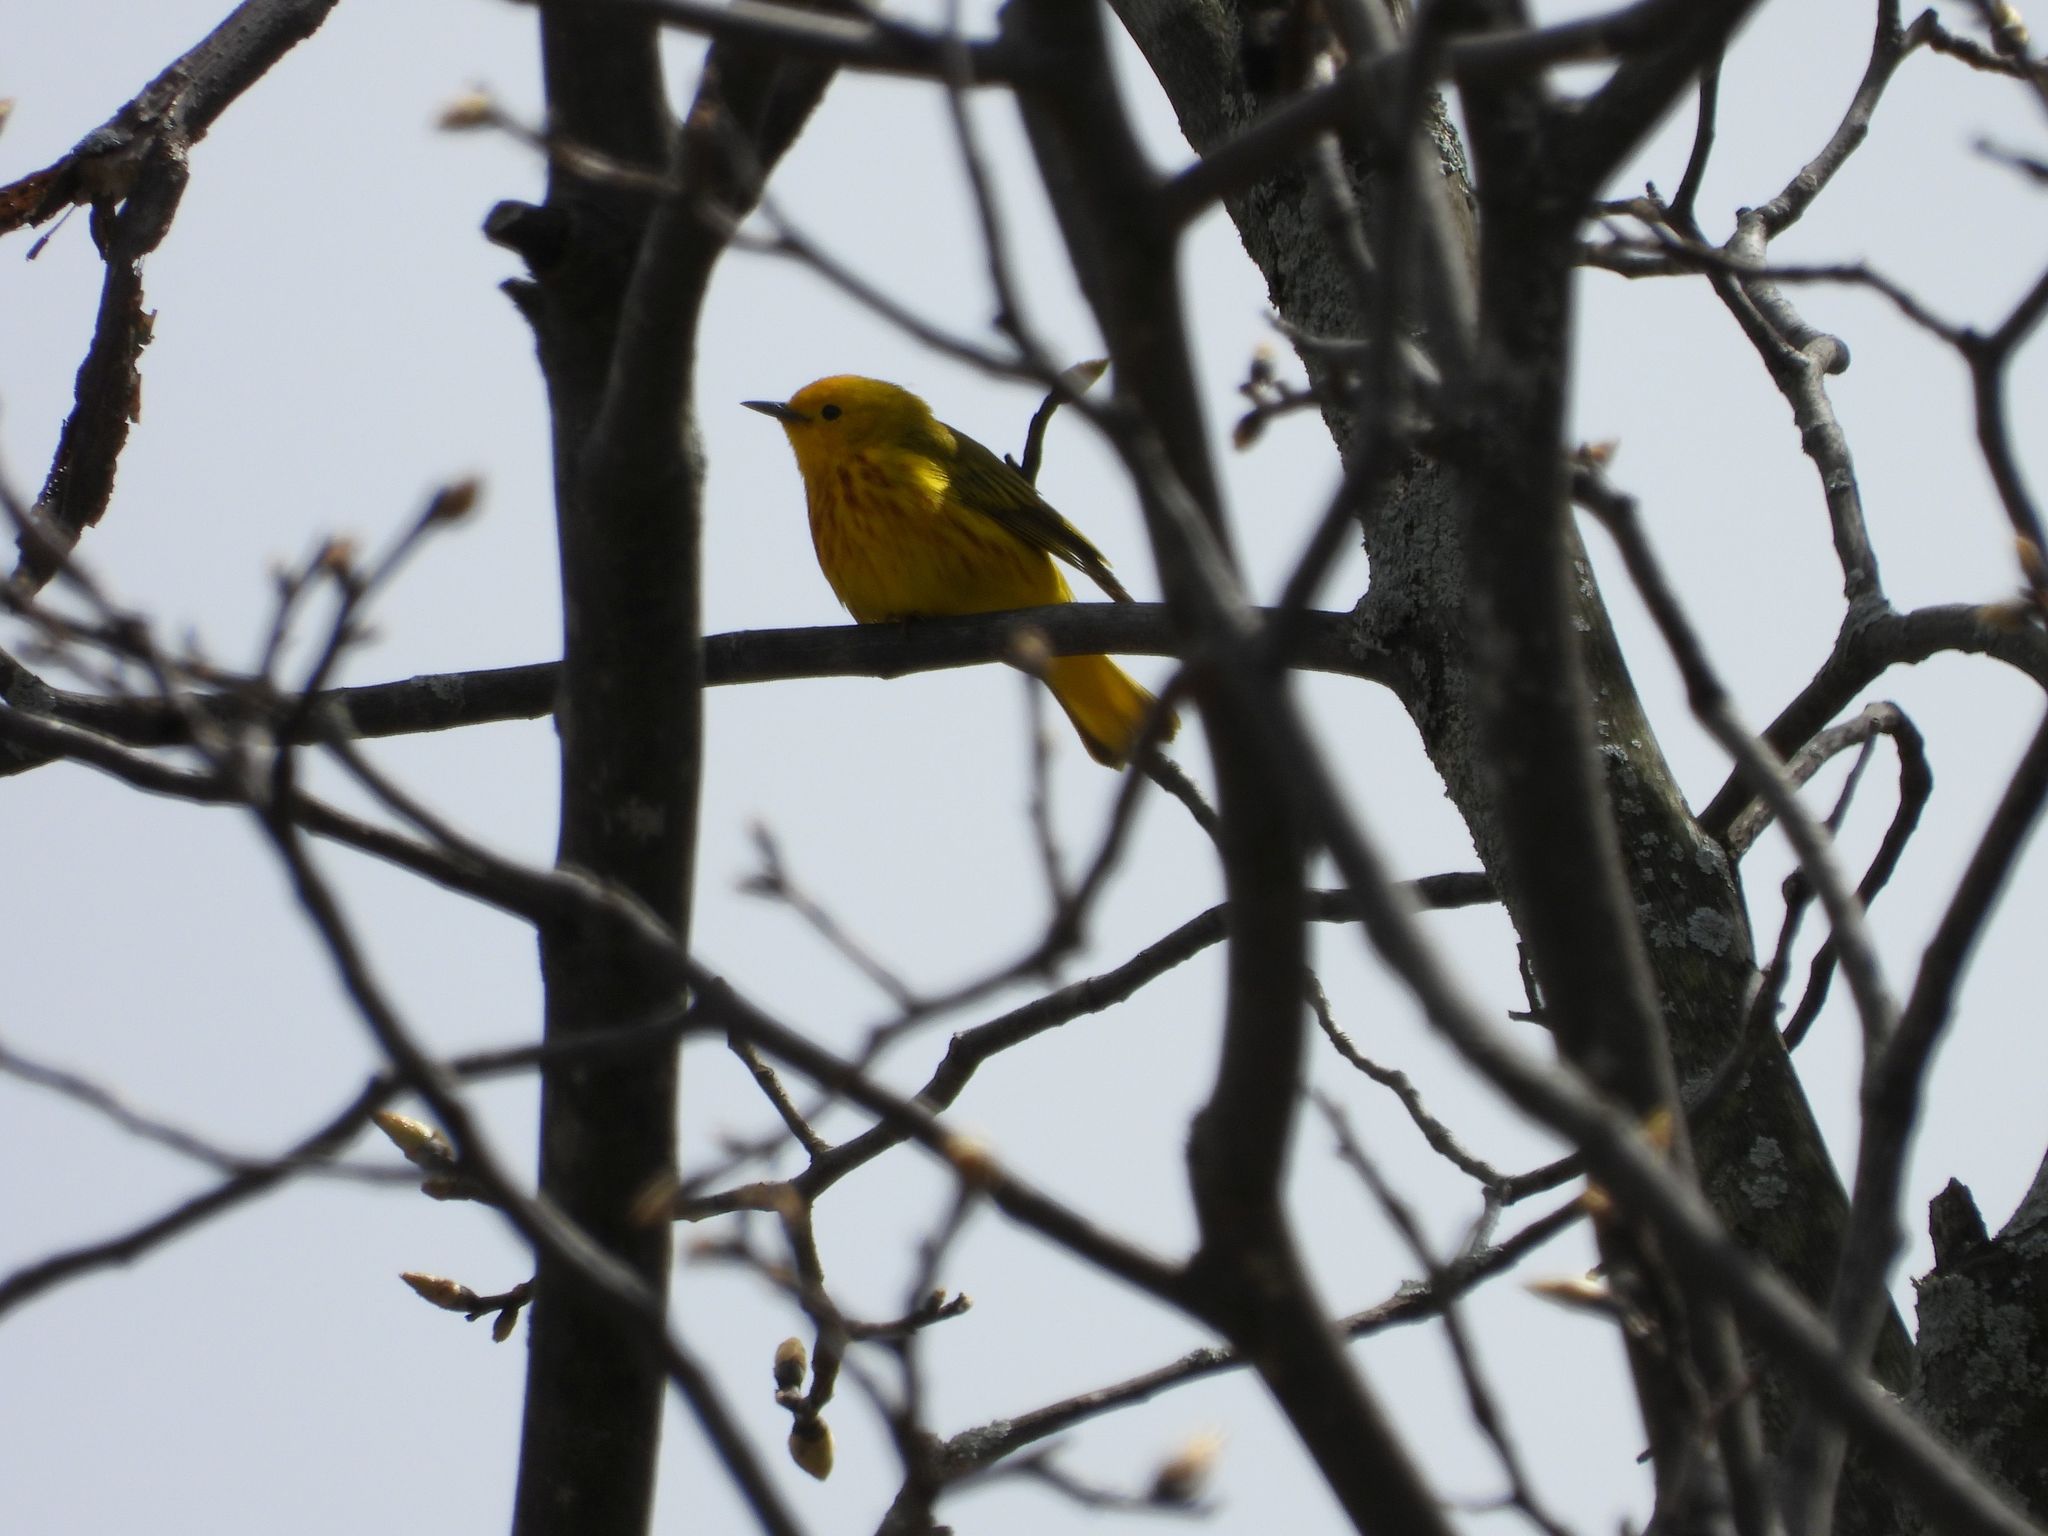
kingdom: Animalia
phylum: Chordata
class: Aves
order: Passeriformes
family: Parulidae
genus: Setophaga
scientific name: Setophaga petechia
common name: Yellow warbler
